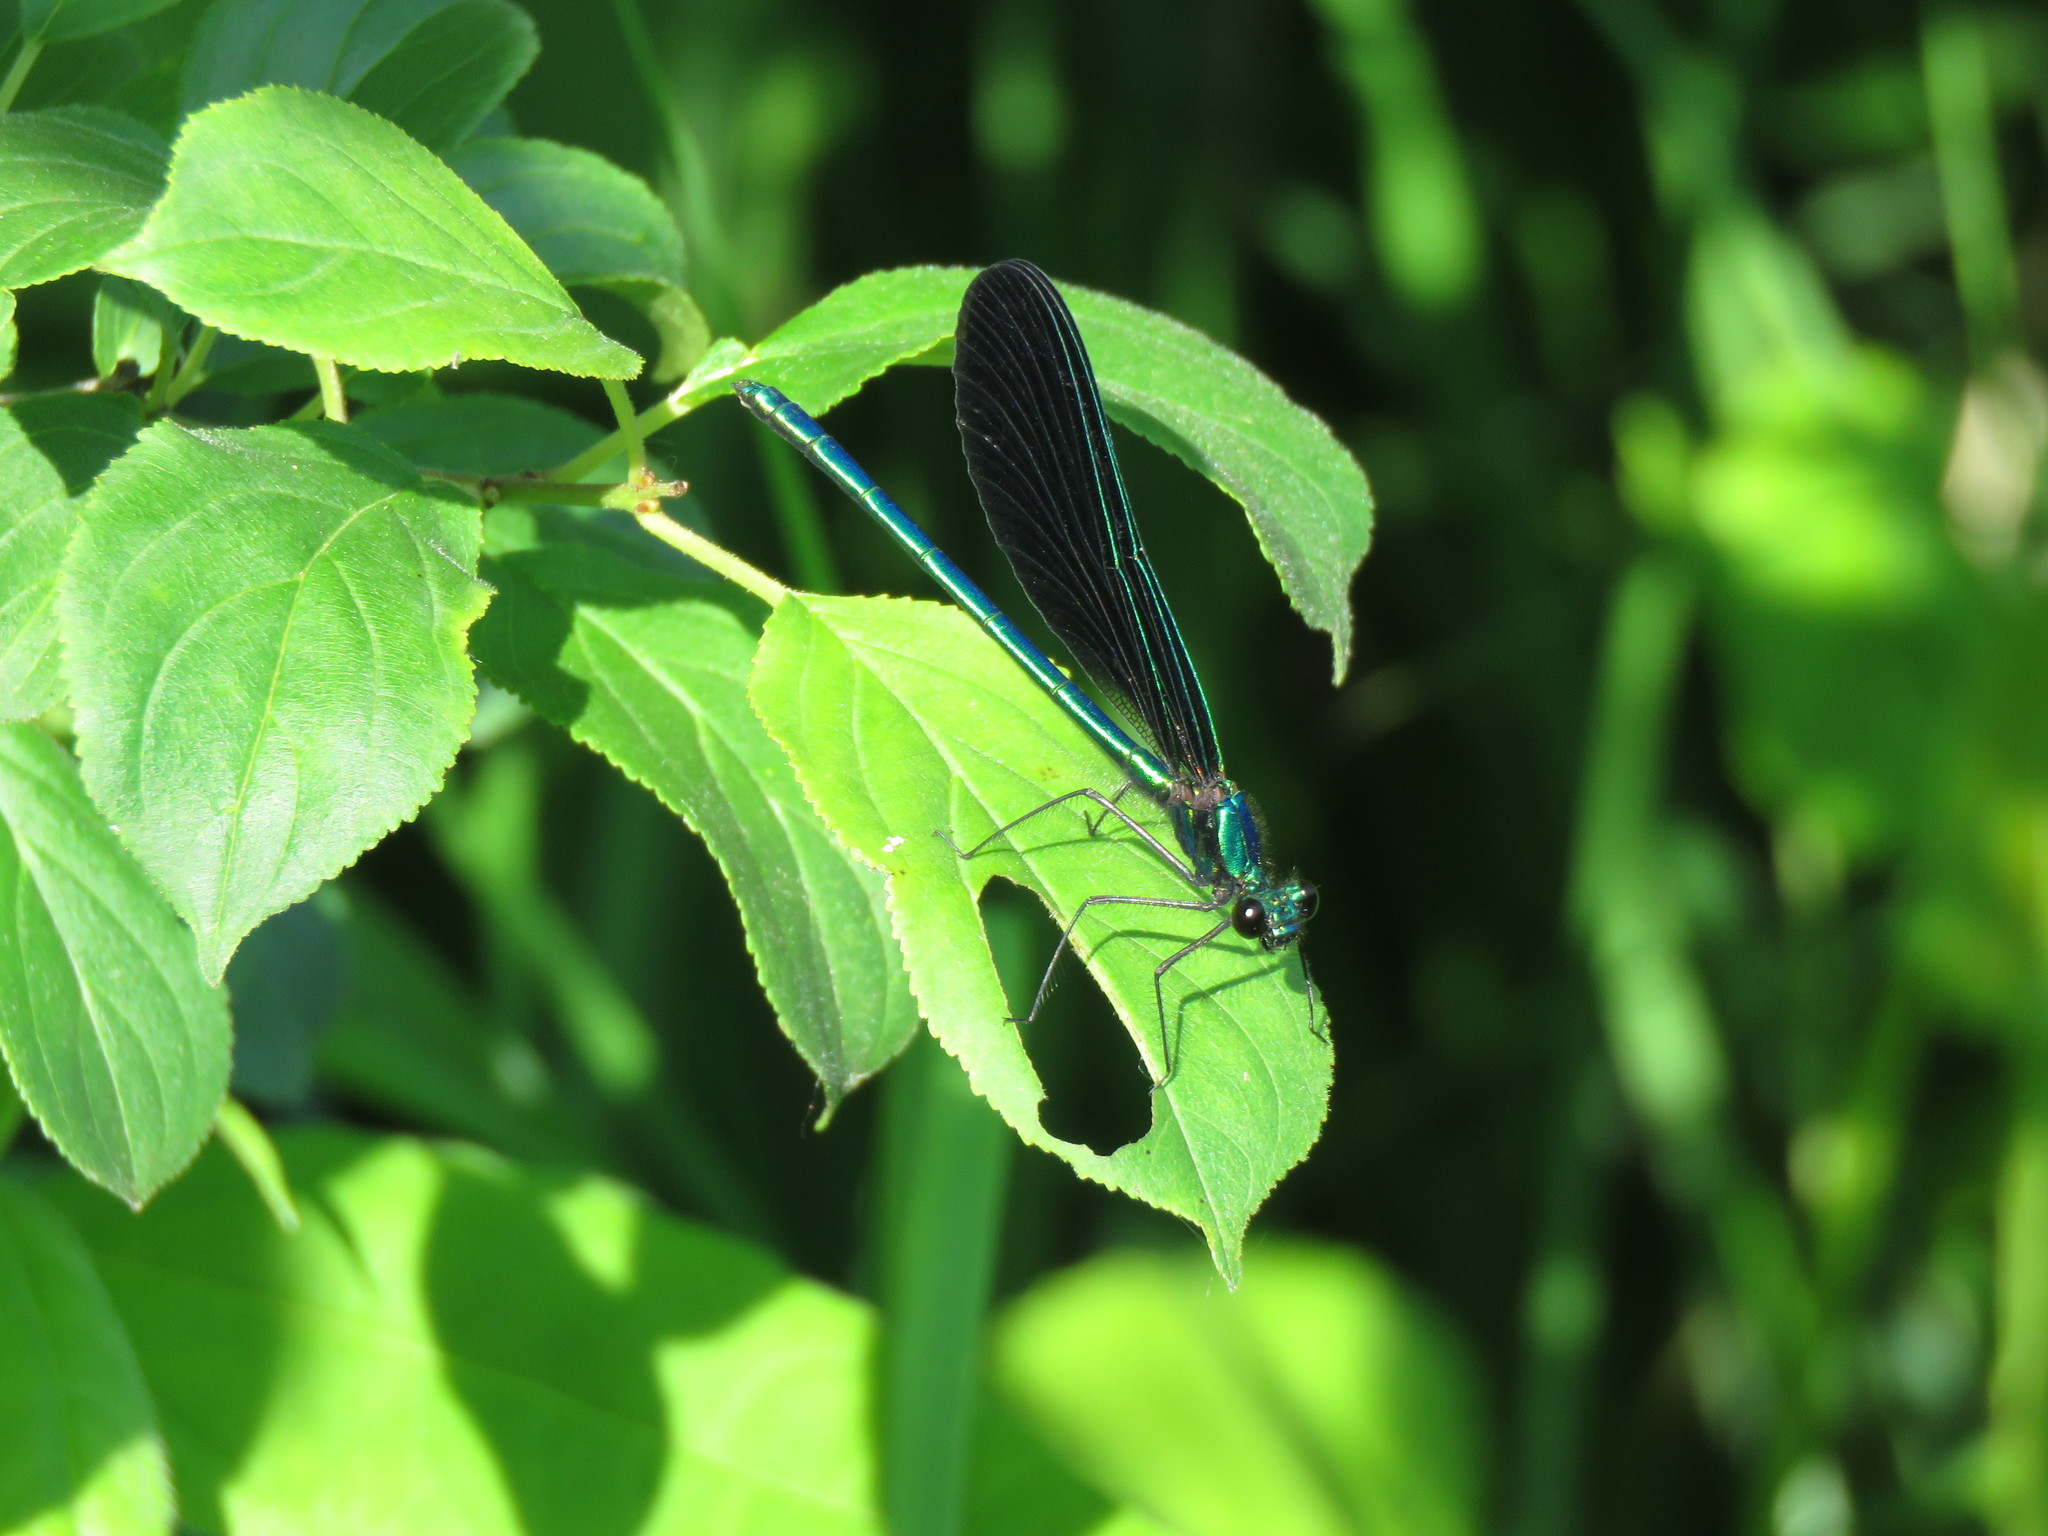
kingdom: Animalia
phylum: Arthropoda
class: Insecta
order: Odonata
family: Calopterygidae
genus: Calopteryx
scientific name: Calopteryx maculata
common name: Ebony jewelwing
